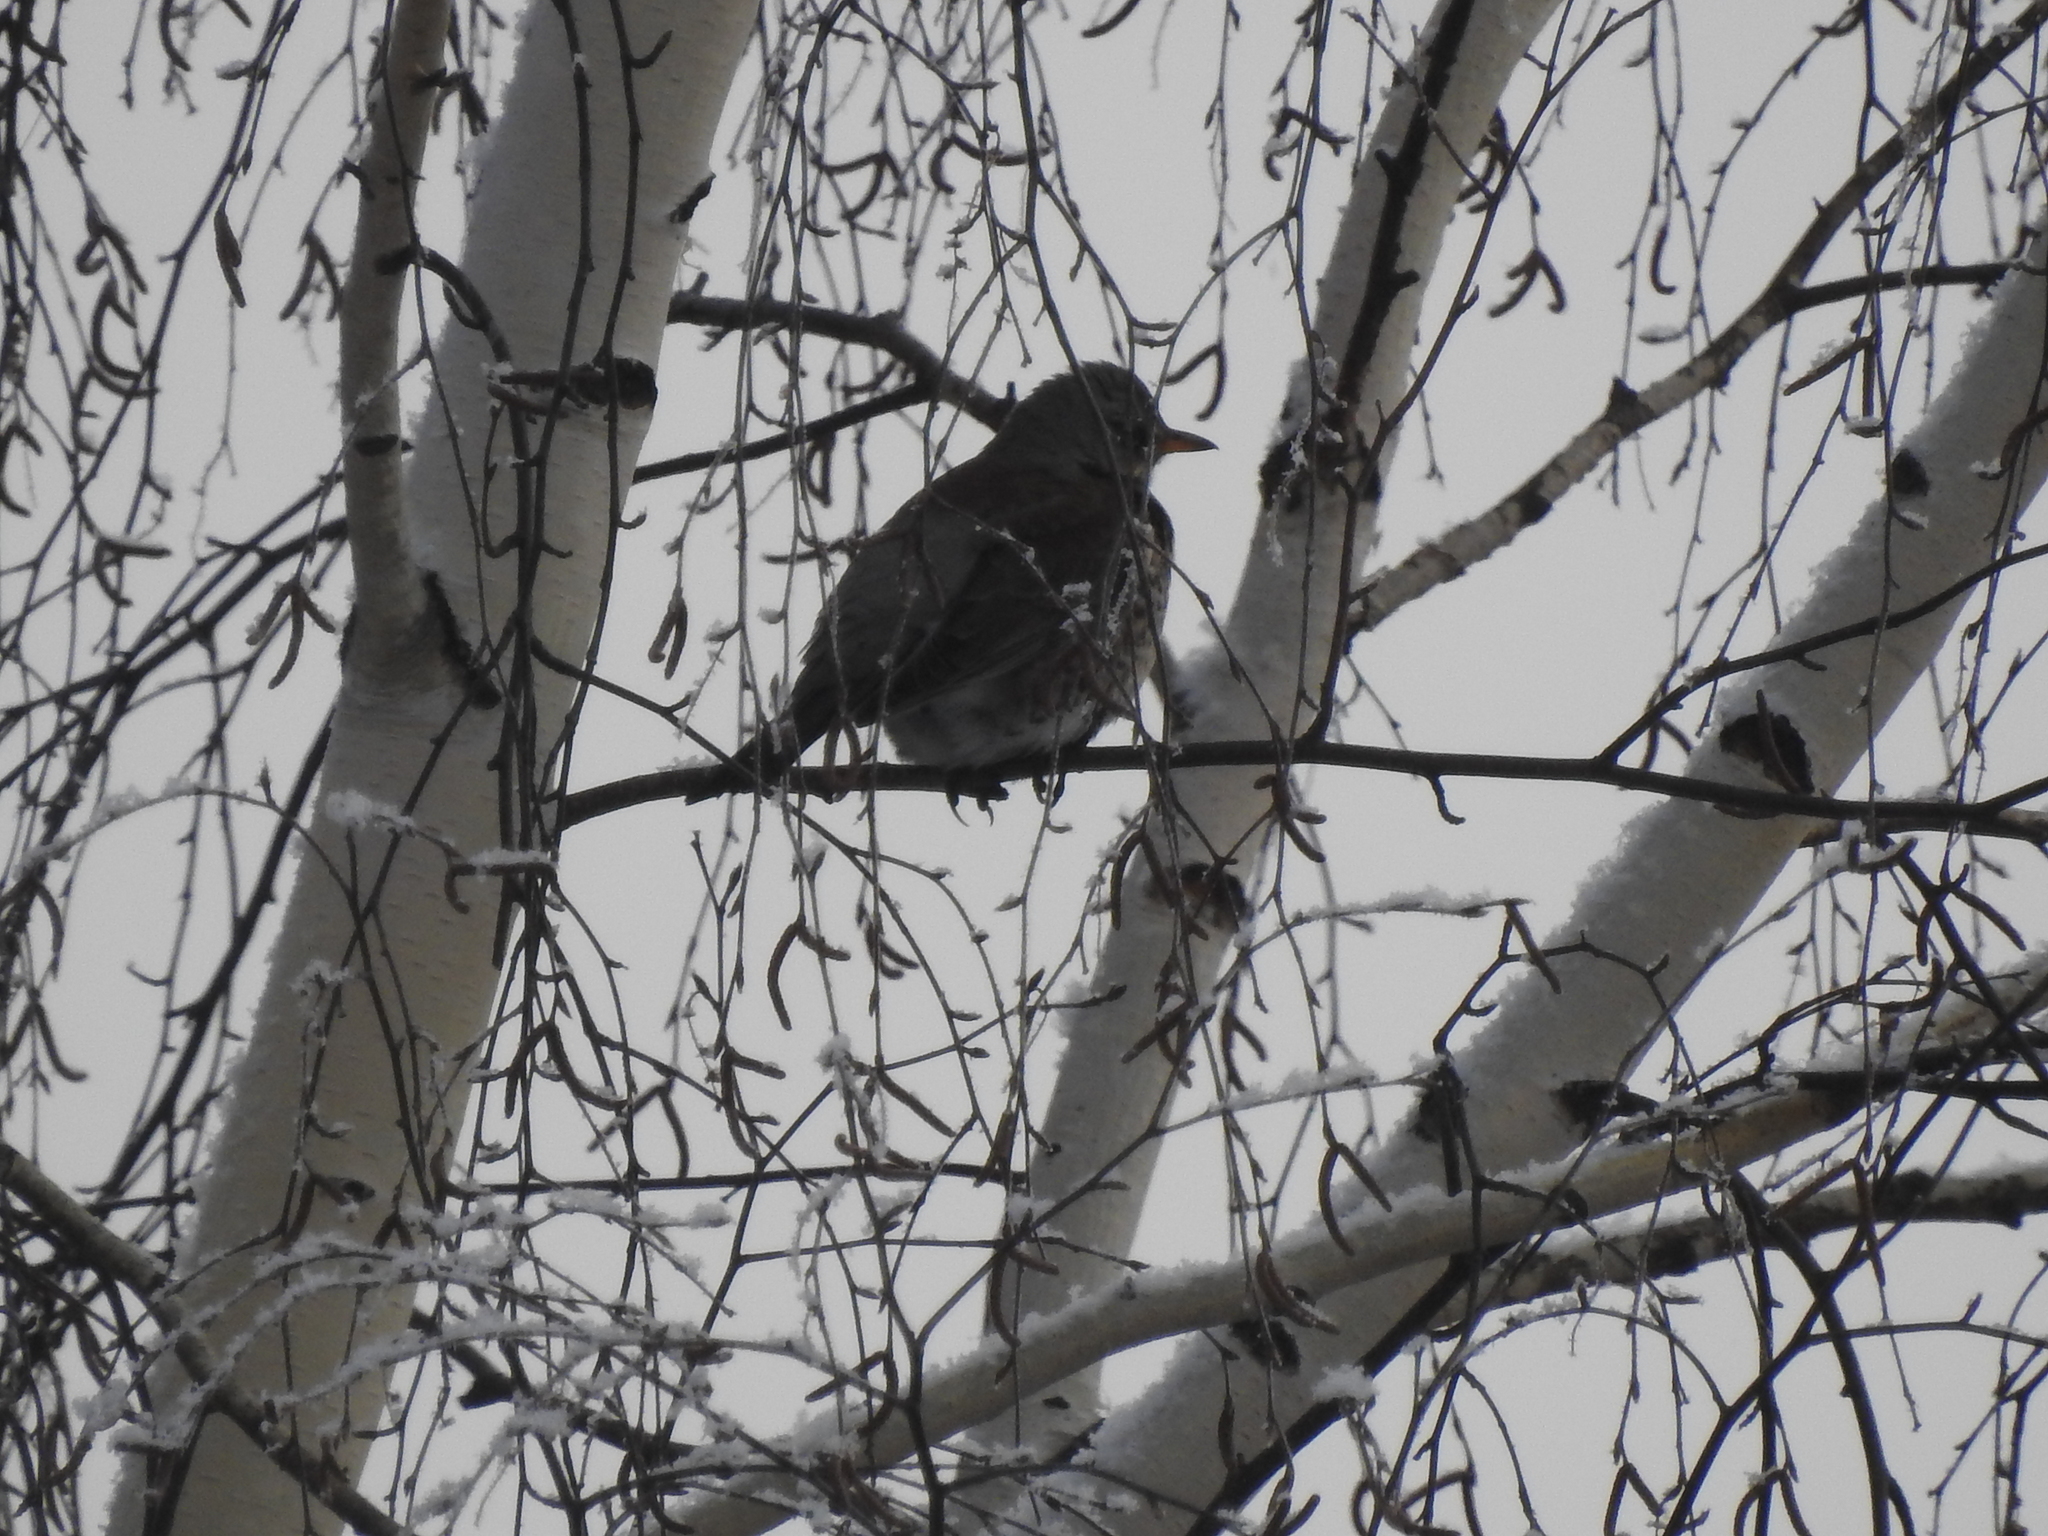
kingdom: Animalia
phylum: Chordata
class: Aves
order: Passeriformes
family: Turdidae
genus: Turdus
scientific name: Turdus pilaris
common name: Fieldfare
